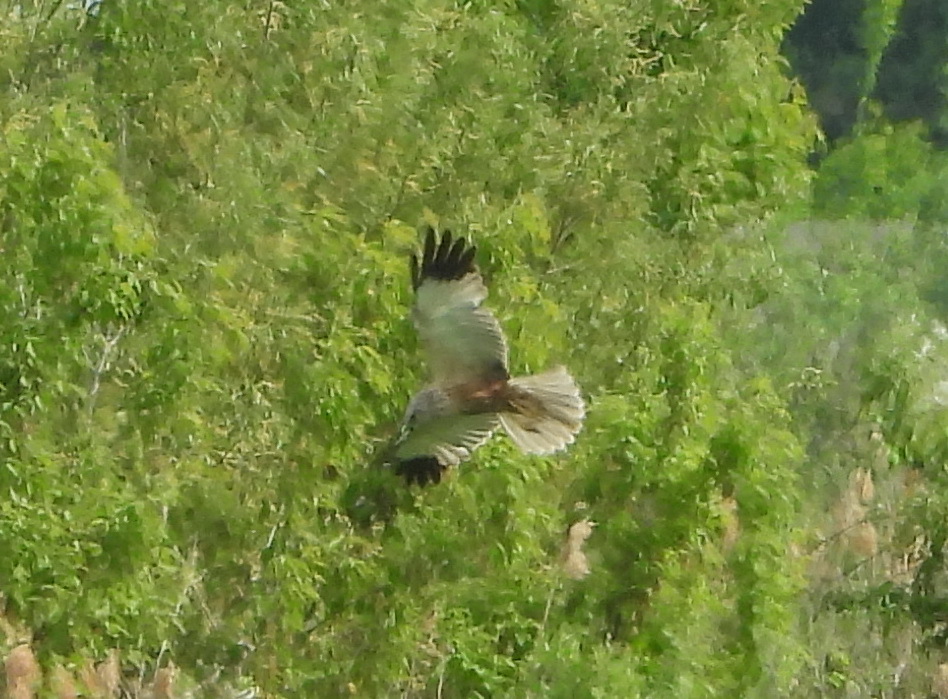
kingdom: Animalia
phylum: Chordata
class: Aves
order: Accipitriformes
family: Accipitridae
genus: Circus
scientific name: Circus cyaneus
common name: Hen harrier
